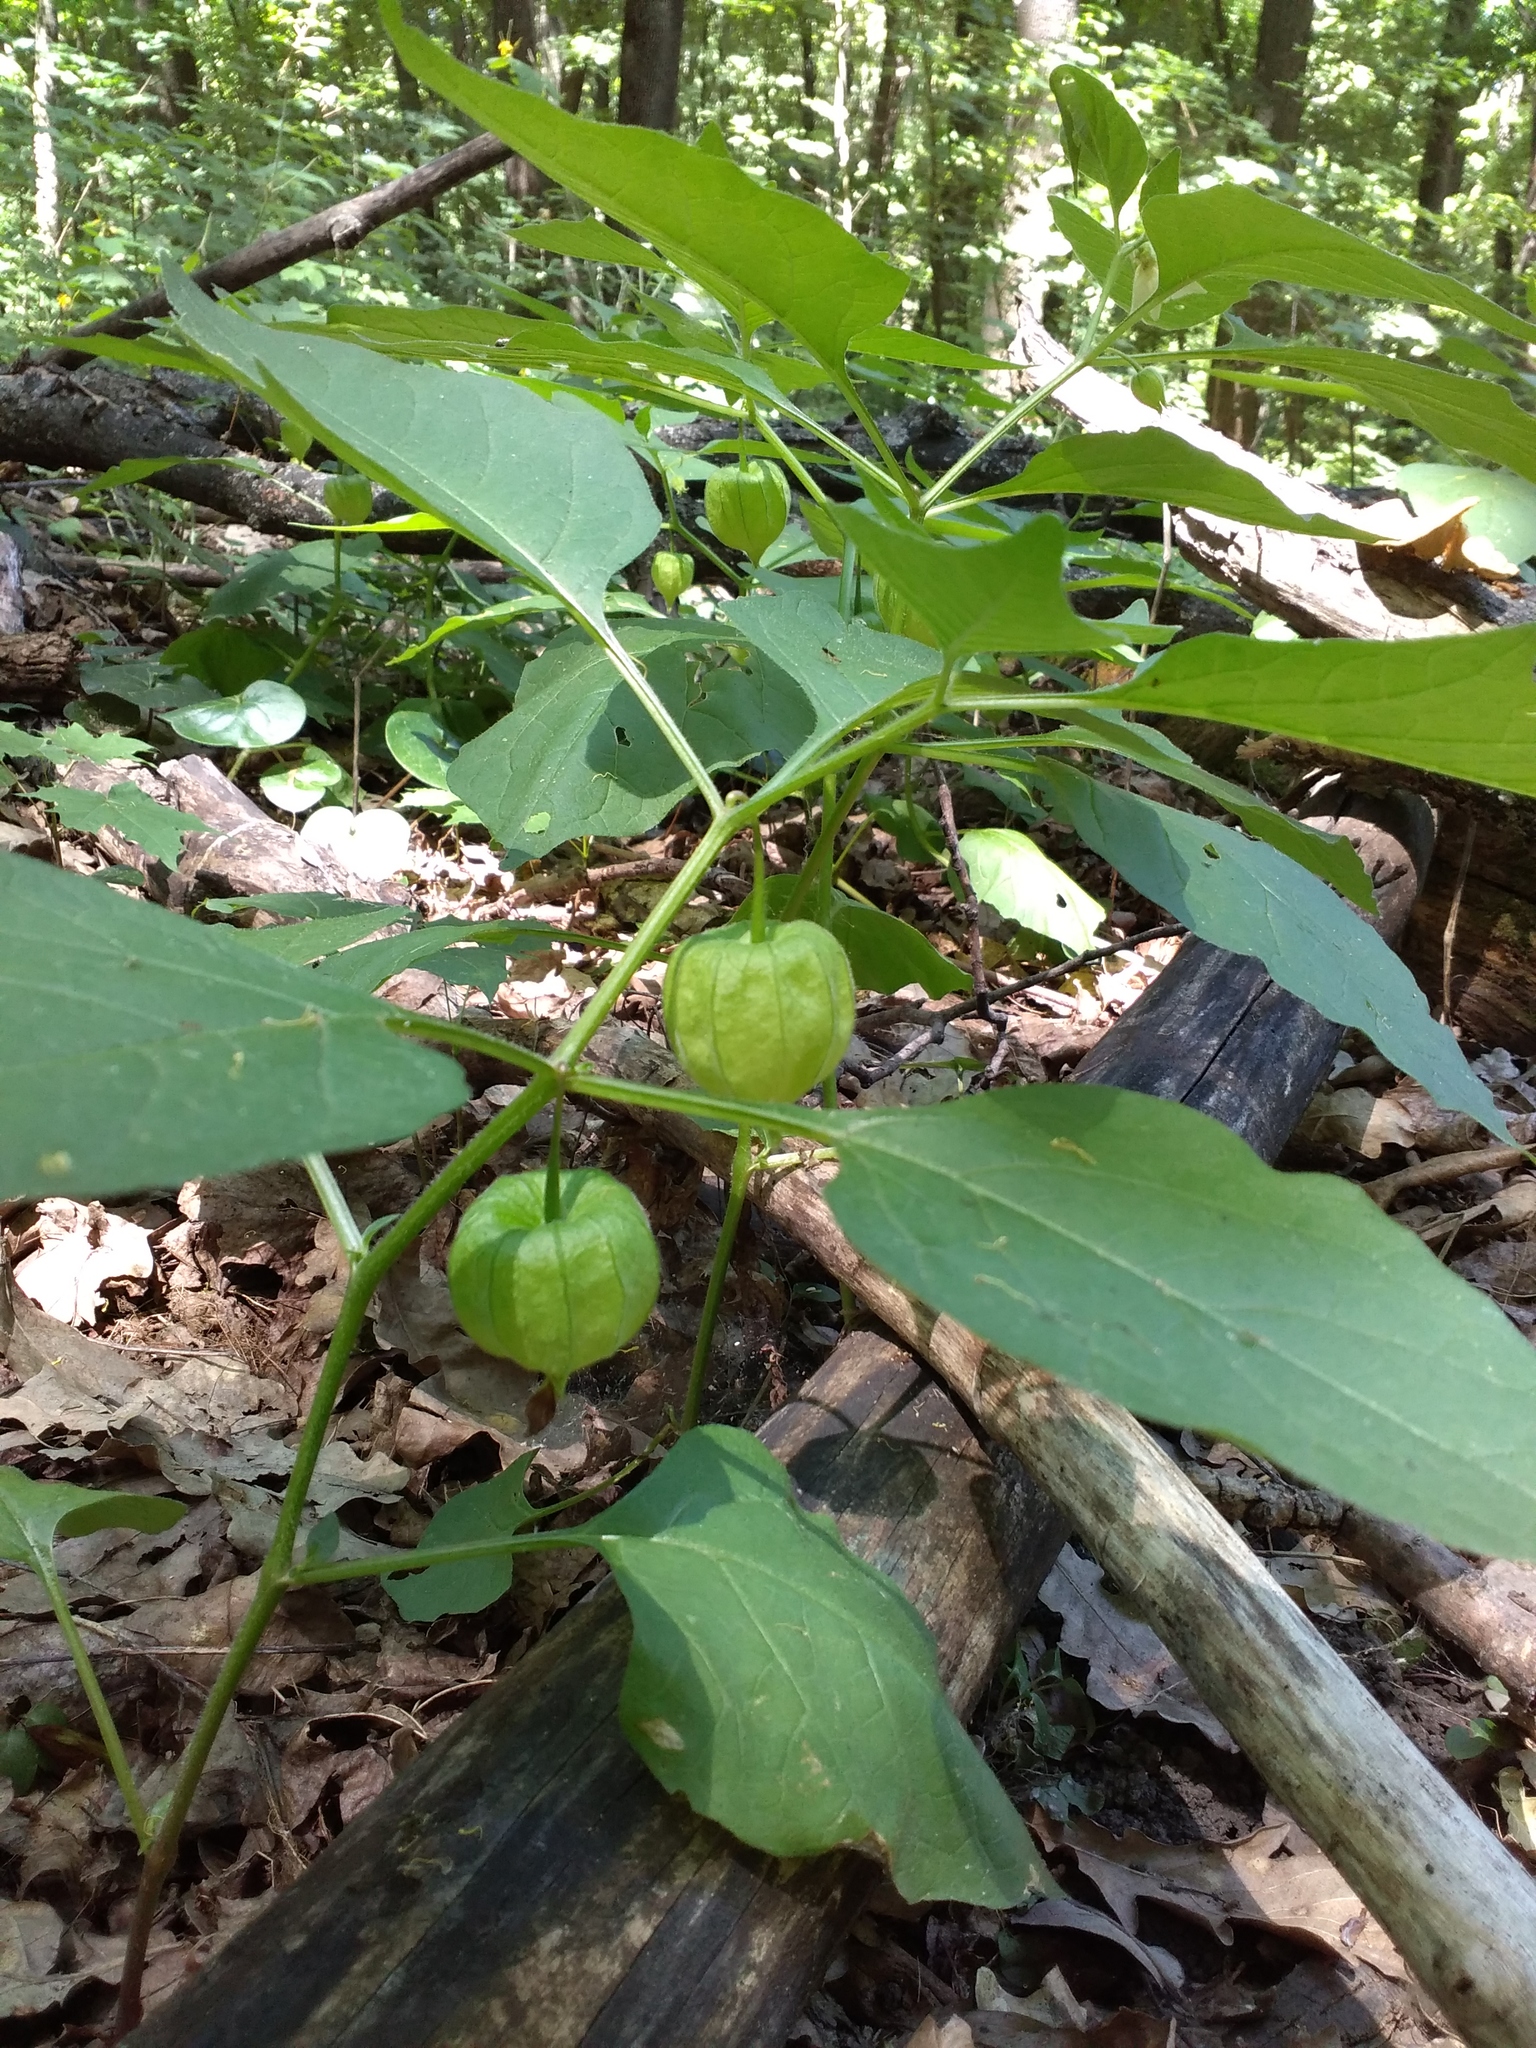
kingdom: Plantae
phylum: Tracheophyta
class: Magnoliopsida
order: Solanales
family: Solanaceae
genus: Alkekengi
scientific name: Alkekengi officinarum
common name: Japanese-lantern
